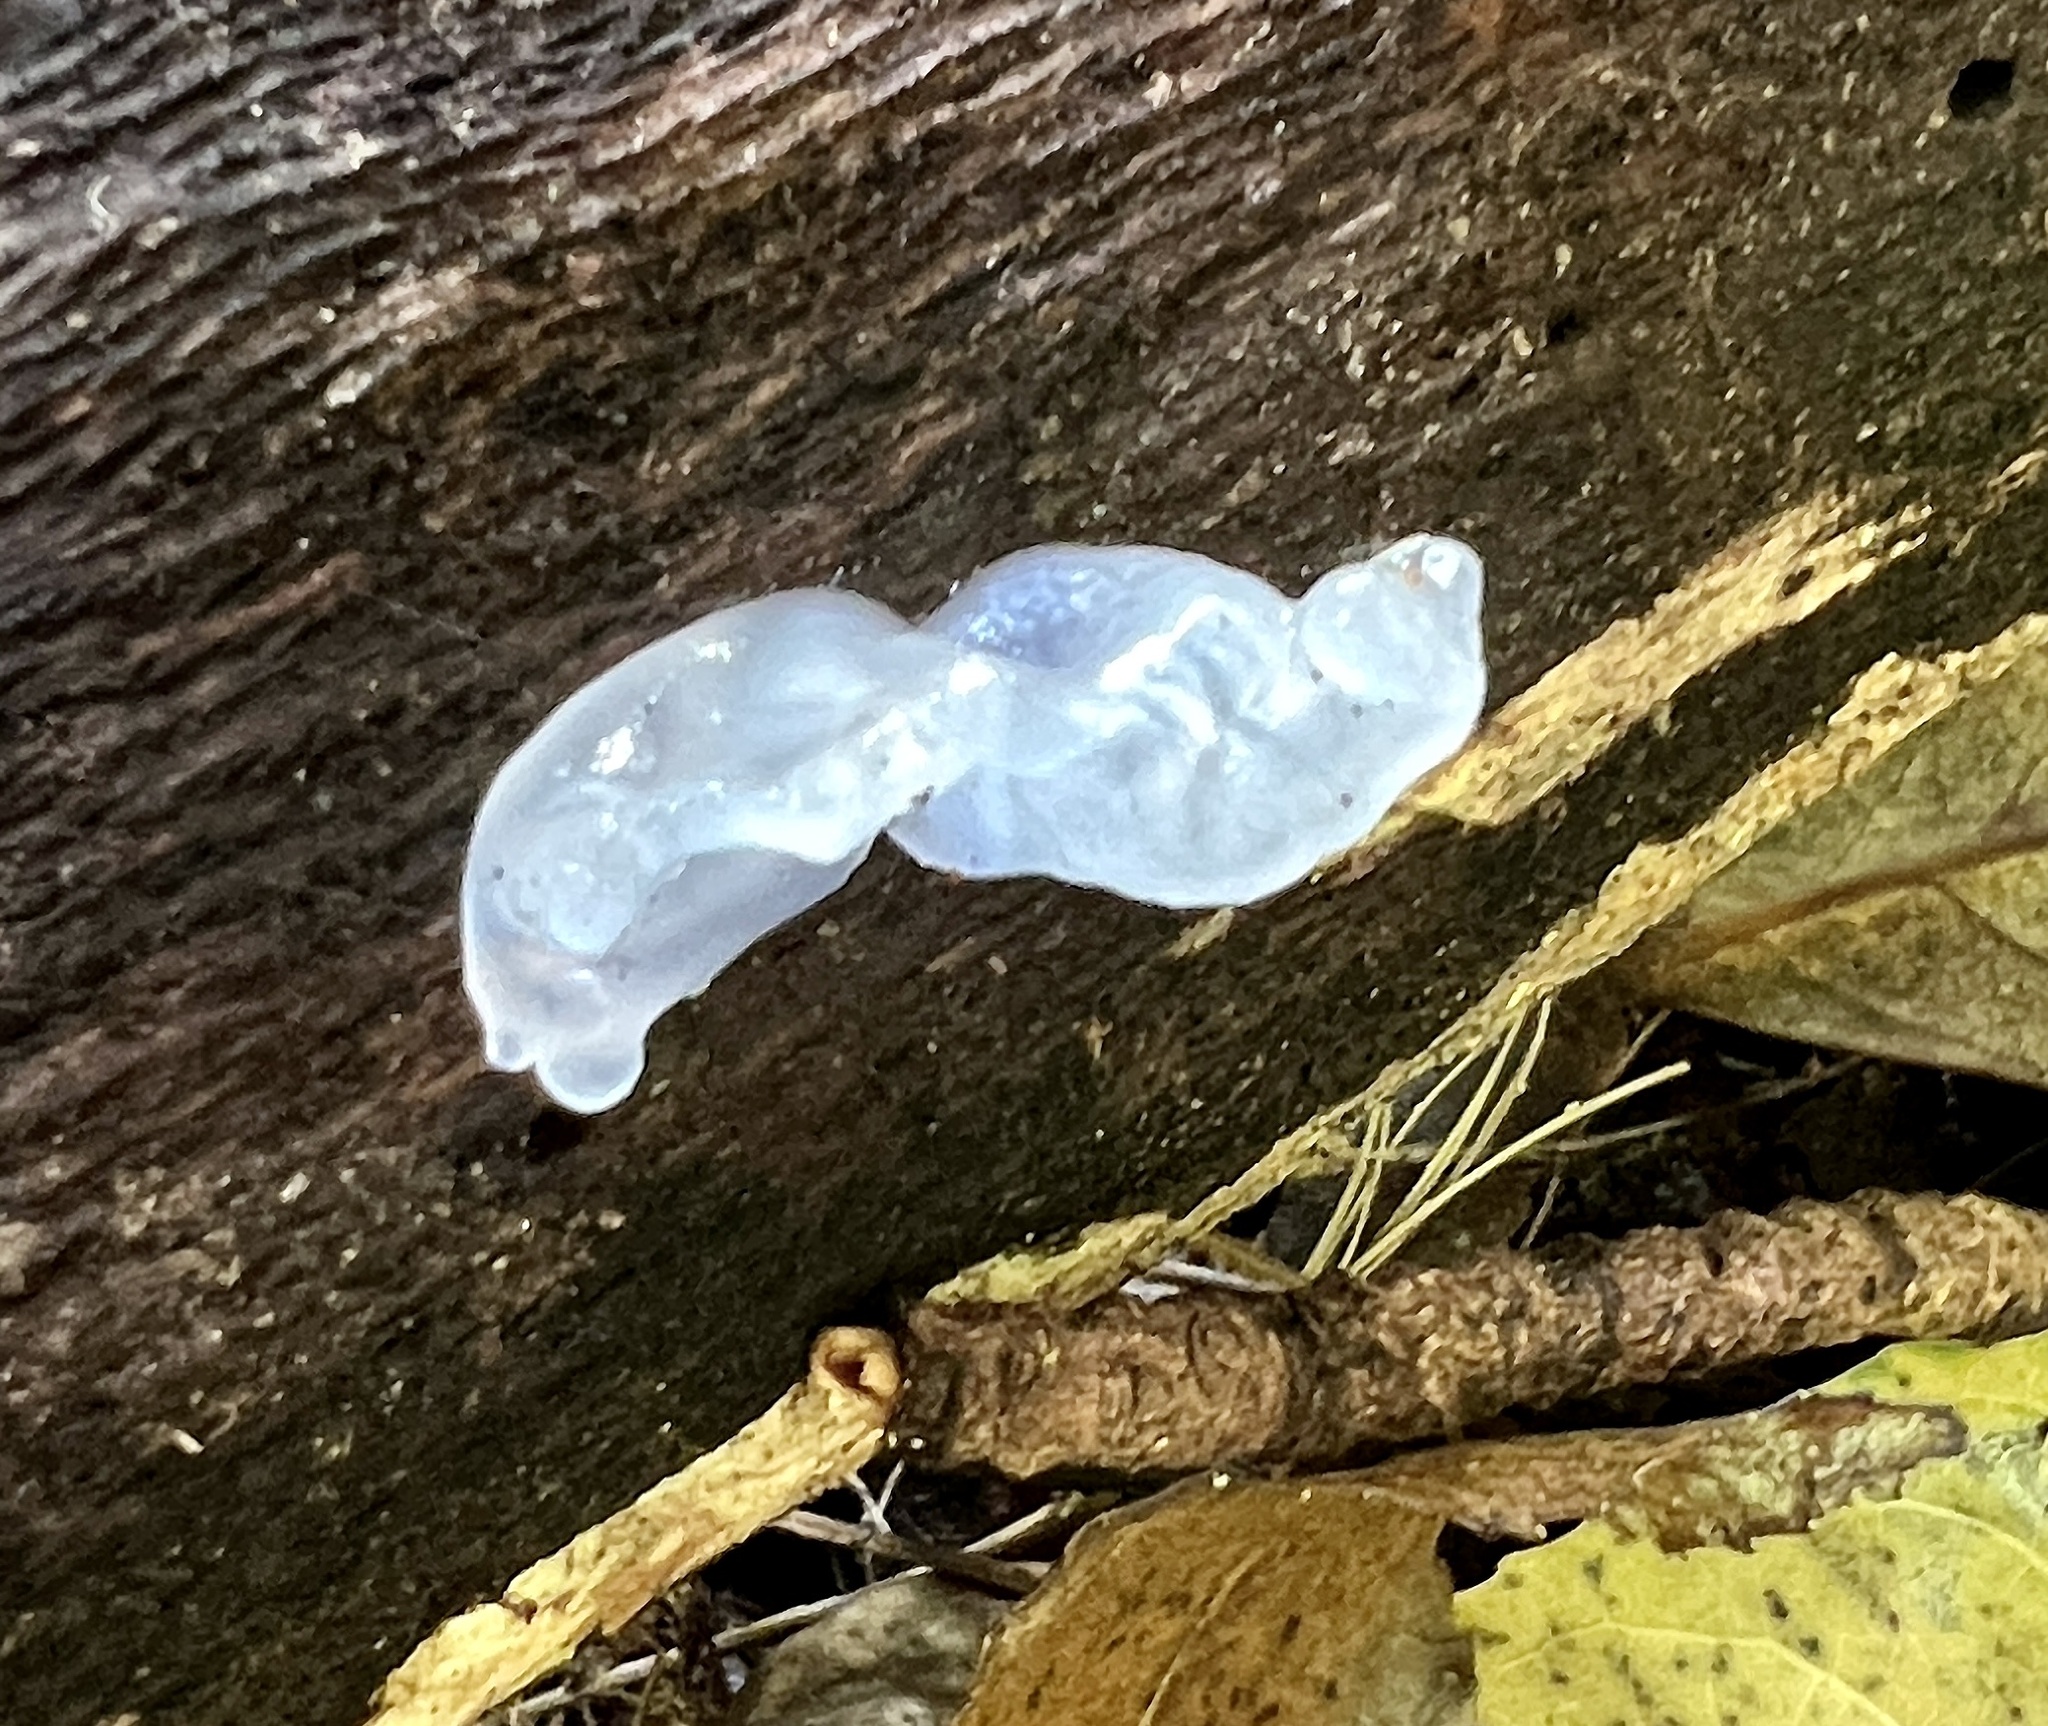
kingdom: Fungi
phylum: Basidiomycota
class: Tremellomycetes
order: Tremellales
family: Tremellaceae
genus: Tremella
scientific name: Tremella fuciformis
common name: Snow fungus
